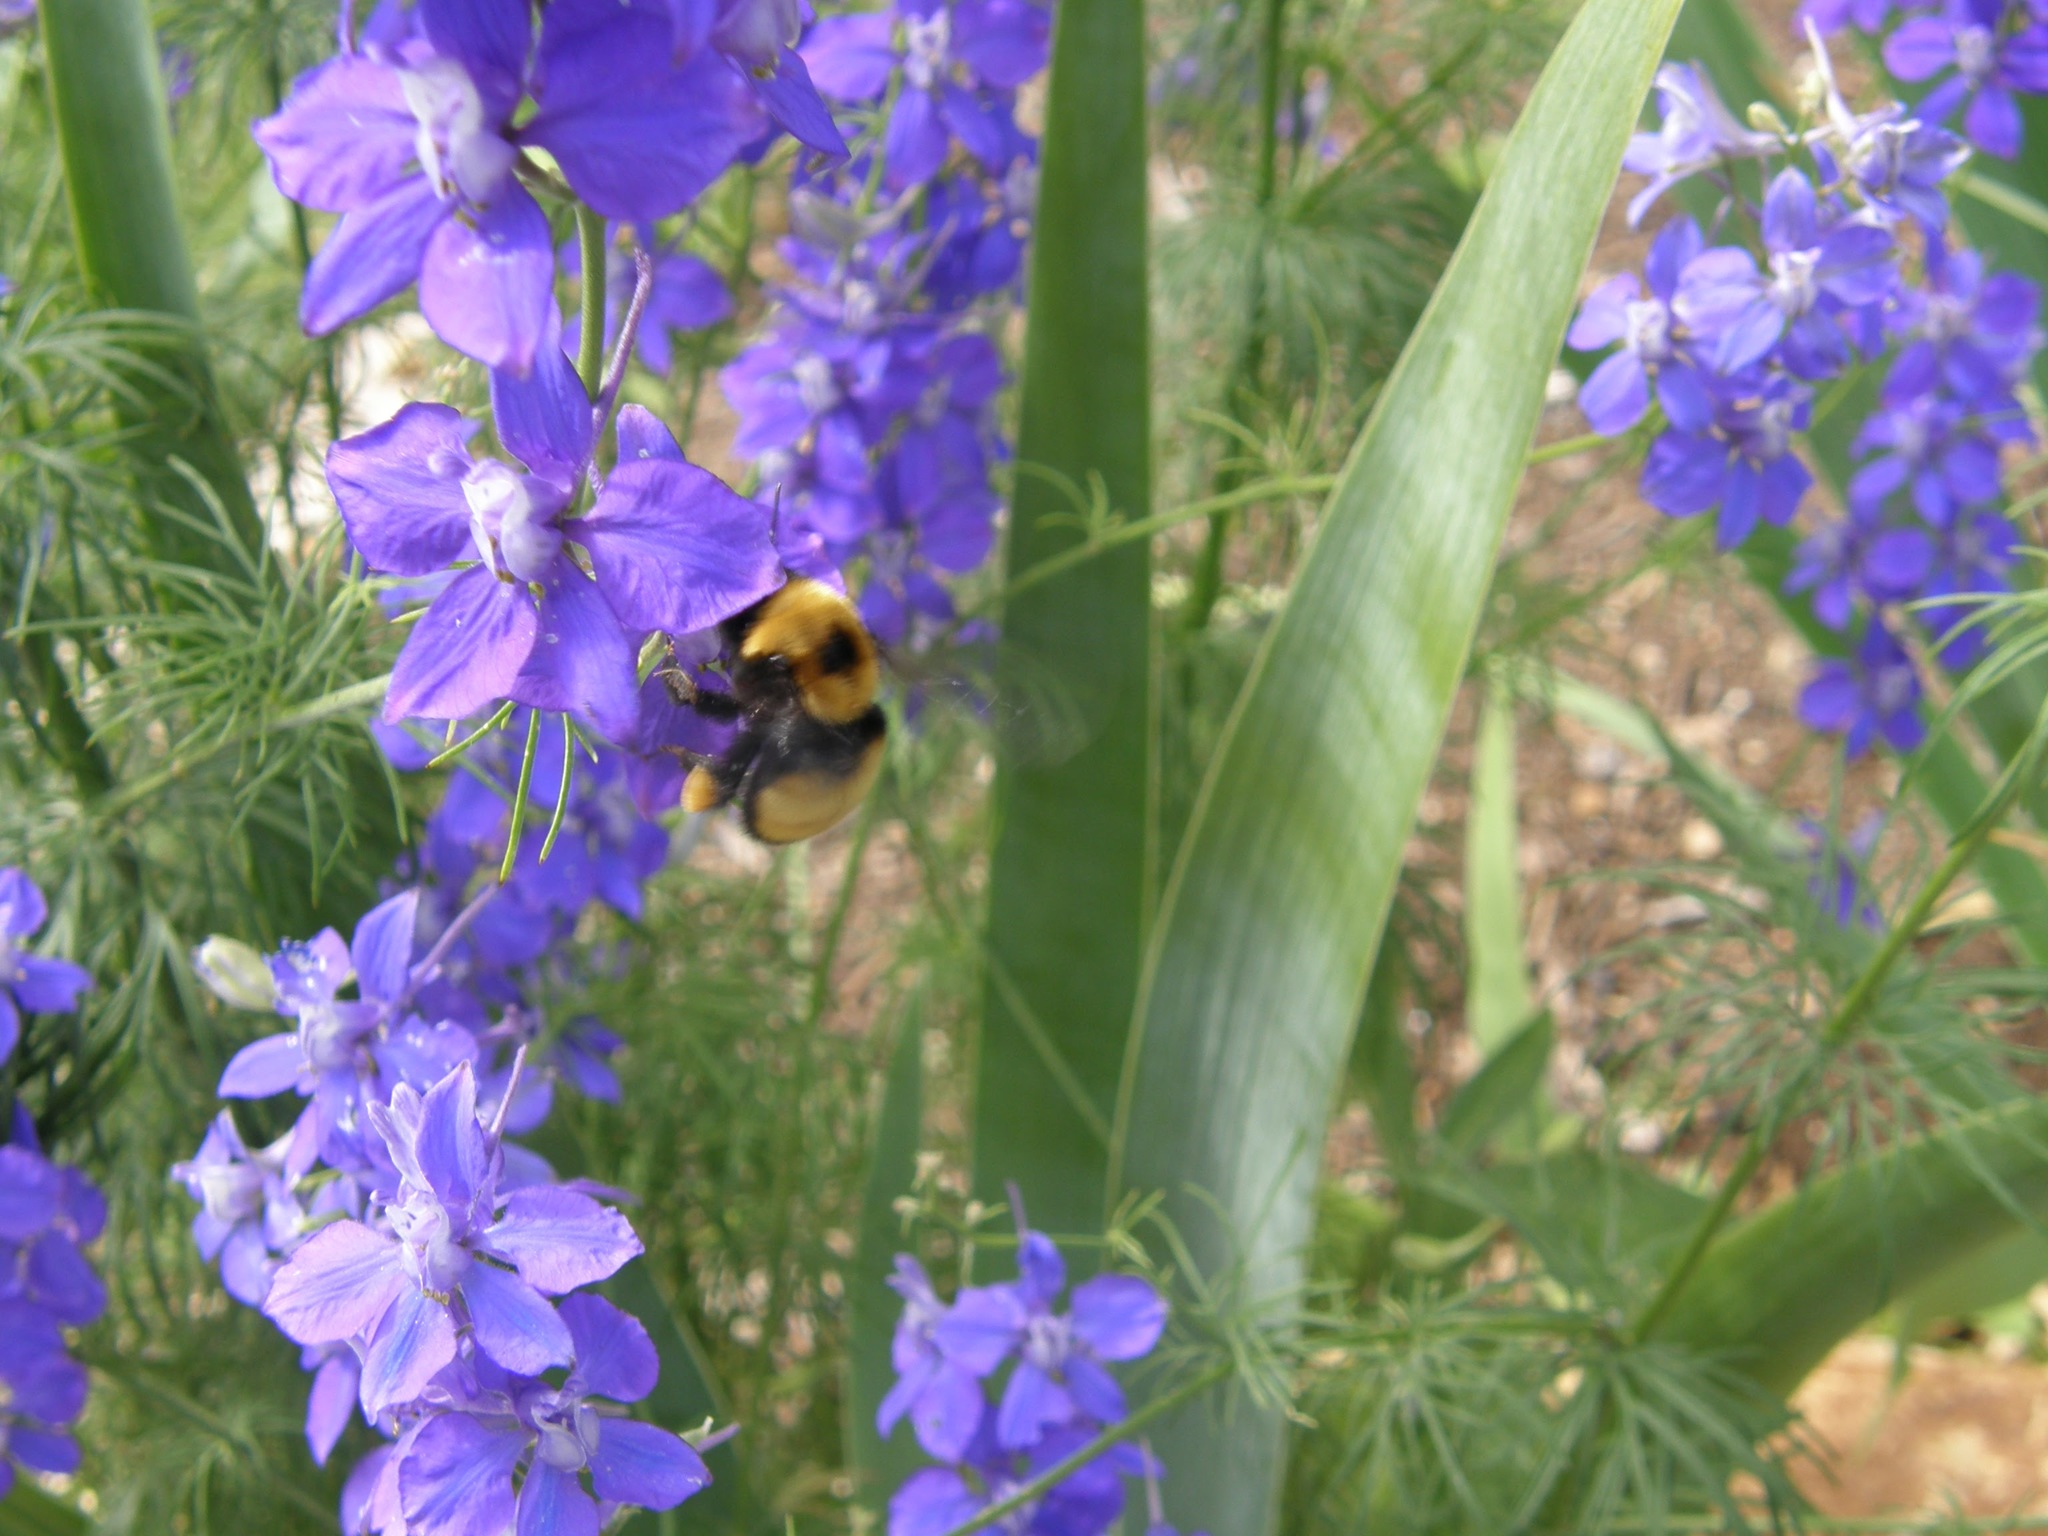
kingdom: Animalia
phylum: Arthropoda
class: Insecta
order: Hymenoptera
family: Apidae
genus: Bombus
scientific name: Bombus nevadensis
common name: Nevada bumble bee
